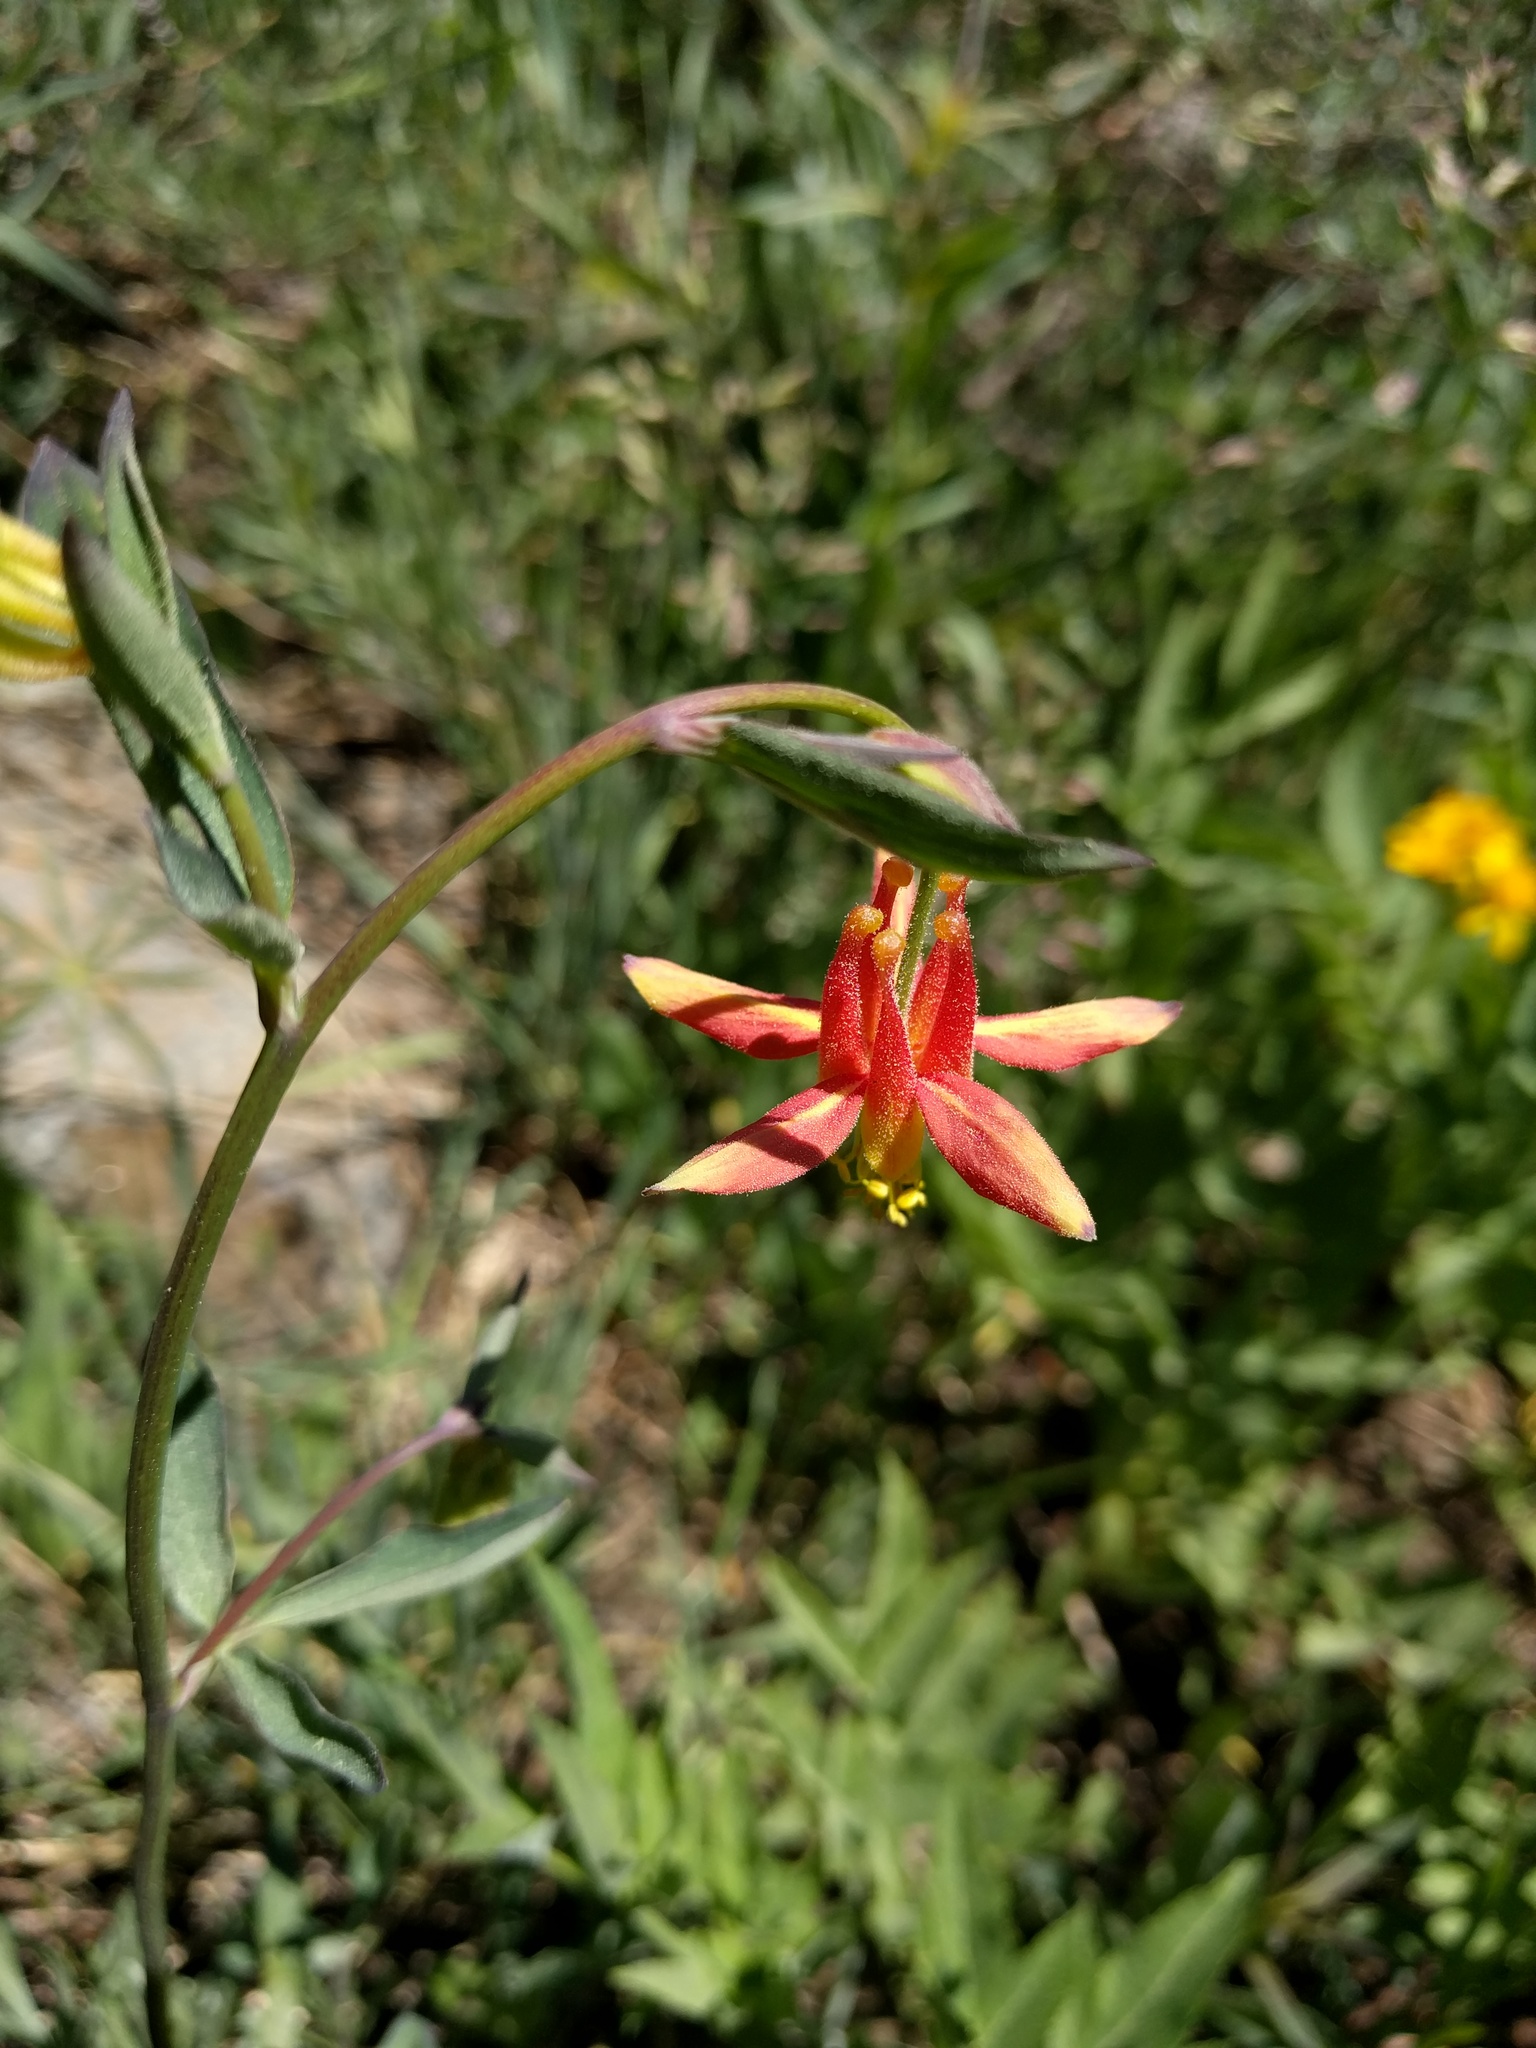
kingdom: Plantae
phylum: Tracheophyta
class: Magnoliopsida
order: Ranunculales
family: Ranunculaceae
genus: Aquilegia
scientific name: Aquilegia formosa
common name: Sitka columbine
